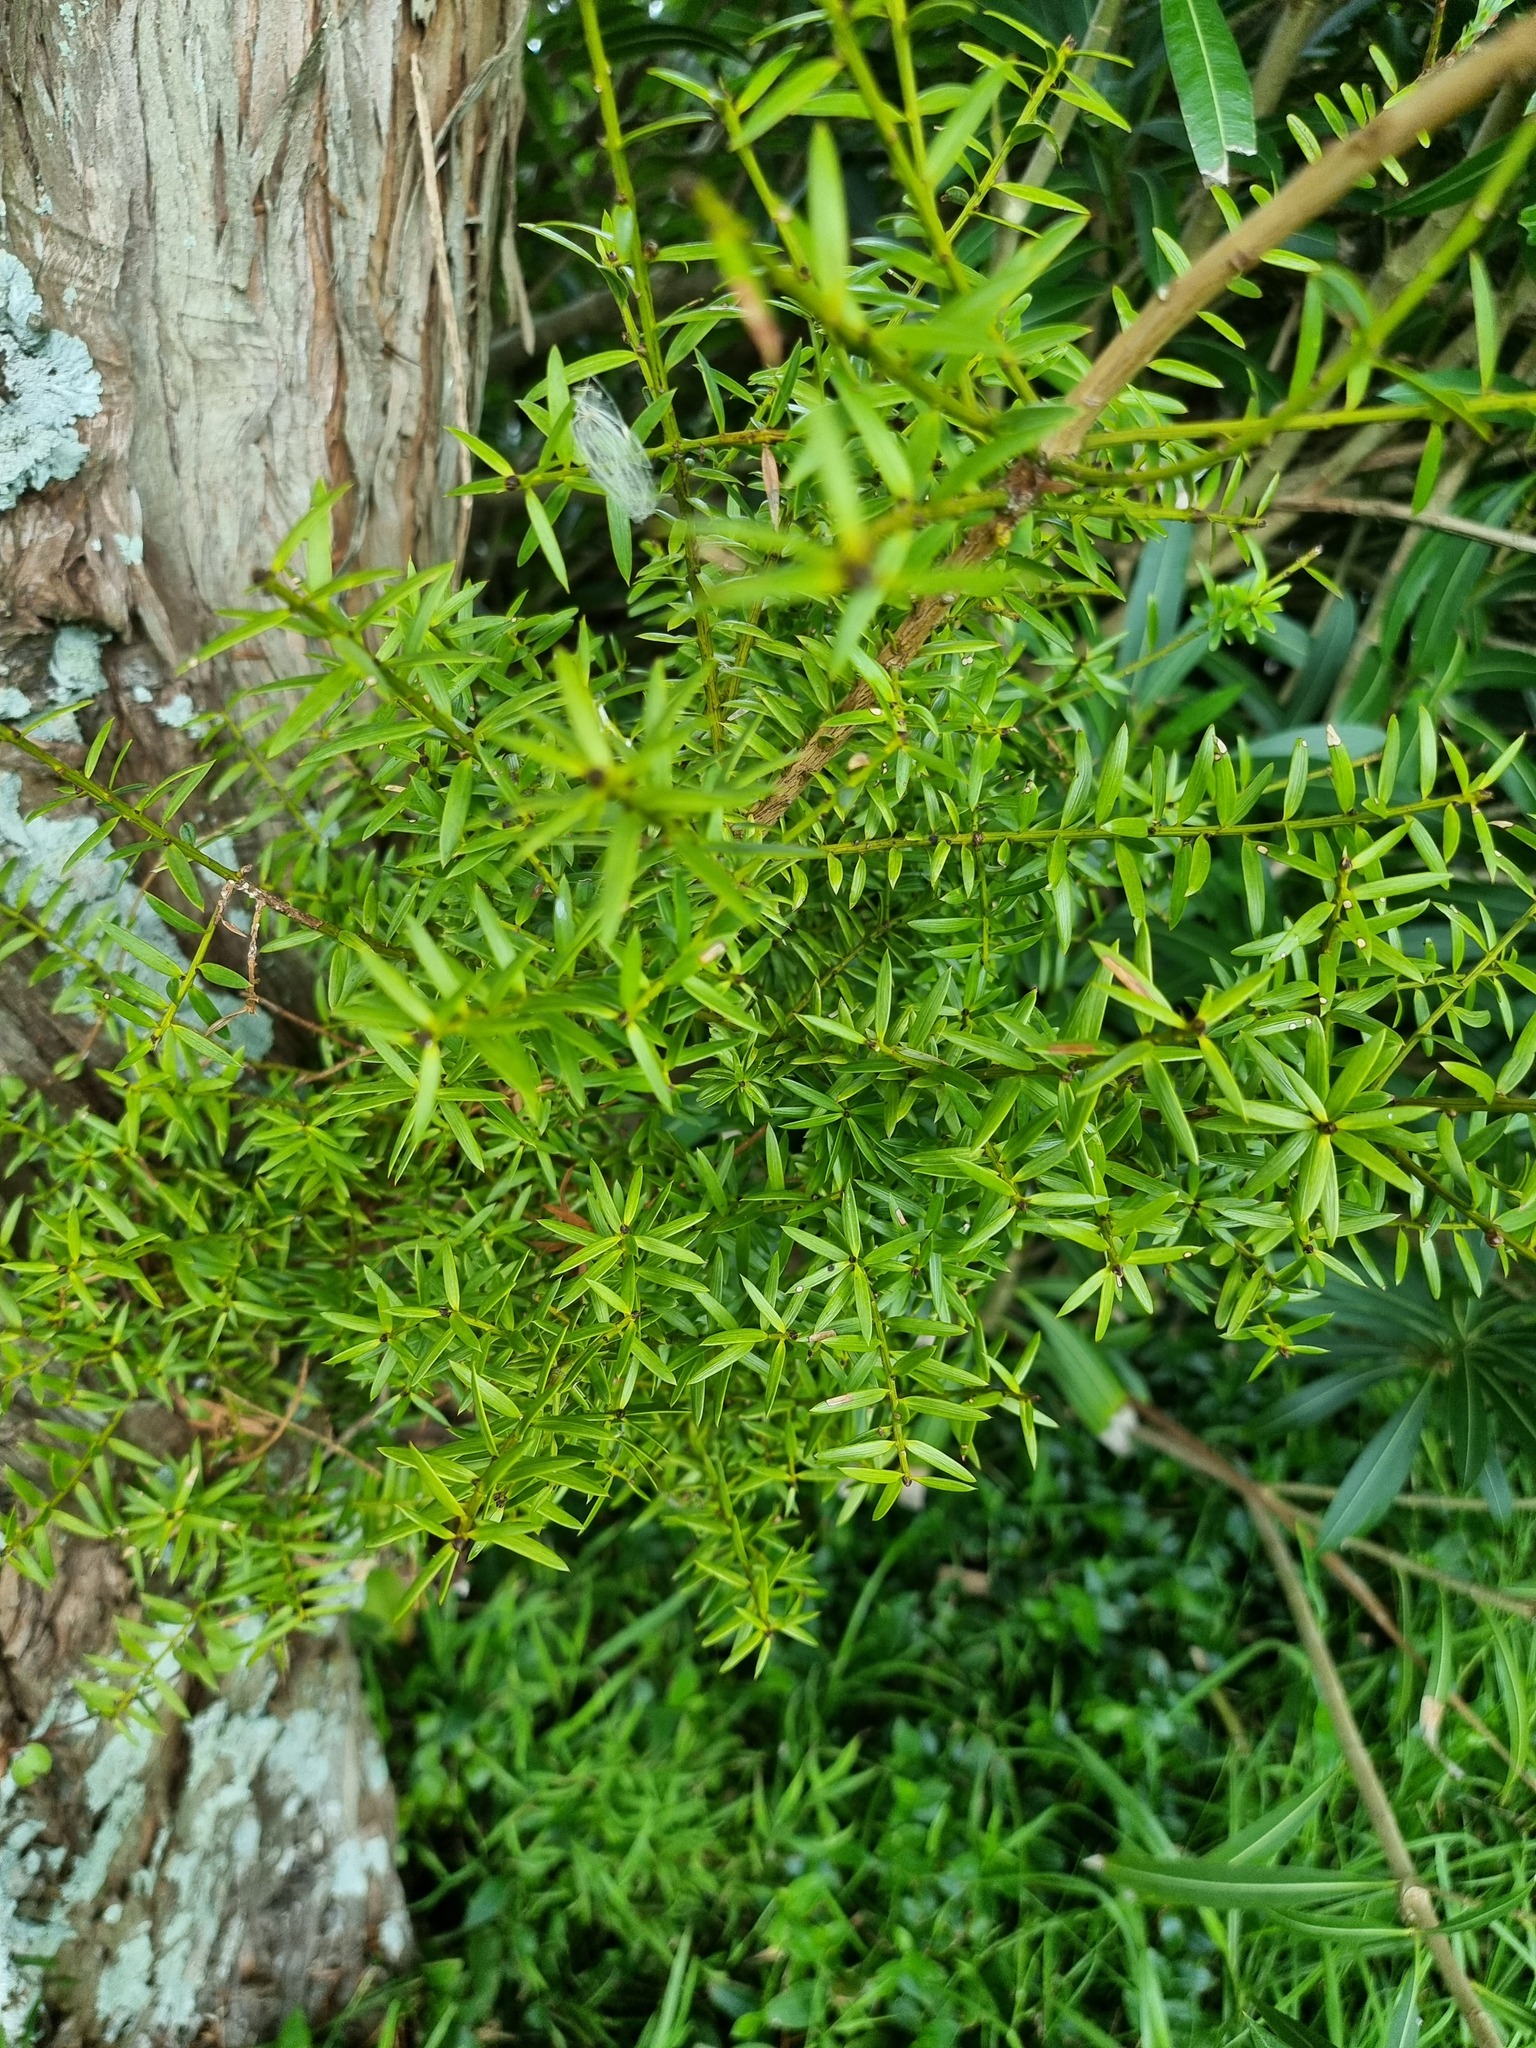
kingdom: Plantae
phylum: Tracheophyta
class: Pinopsida
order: Pinales
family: Podocarpaceae
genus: Podocarpus
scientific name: Podocarpus totara
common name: Totara
